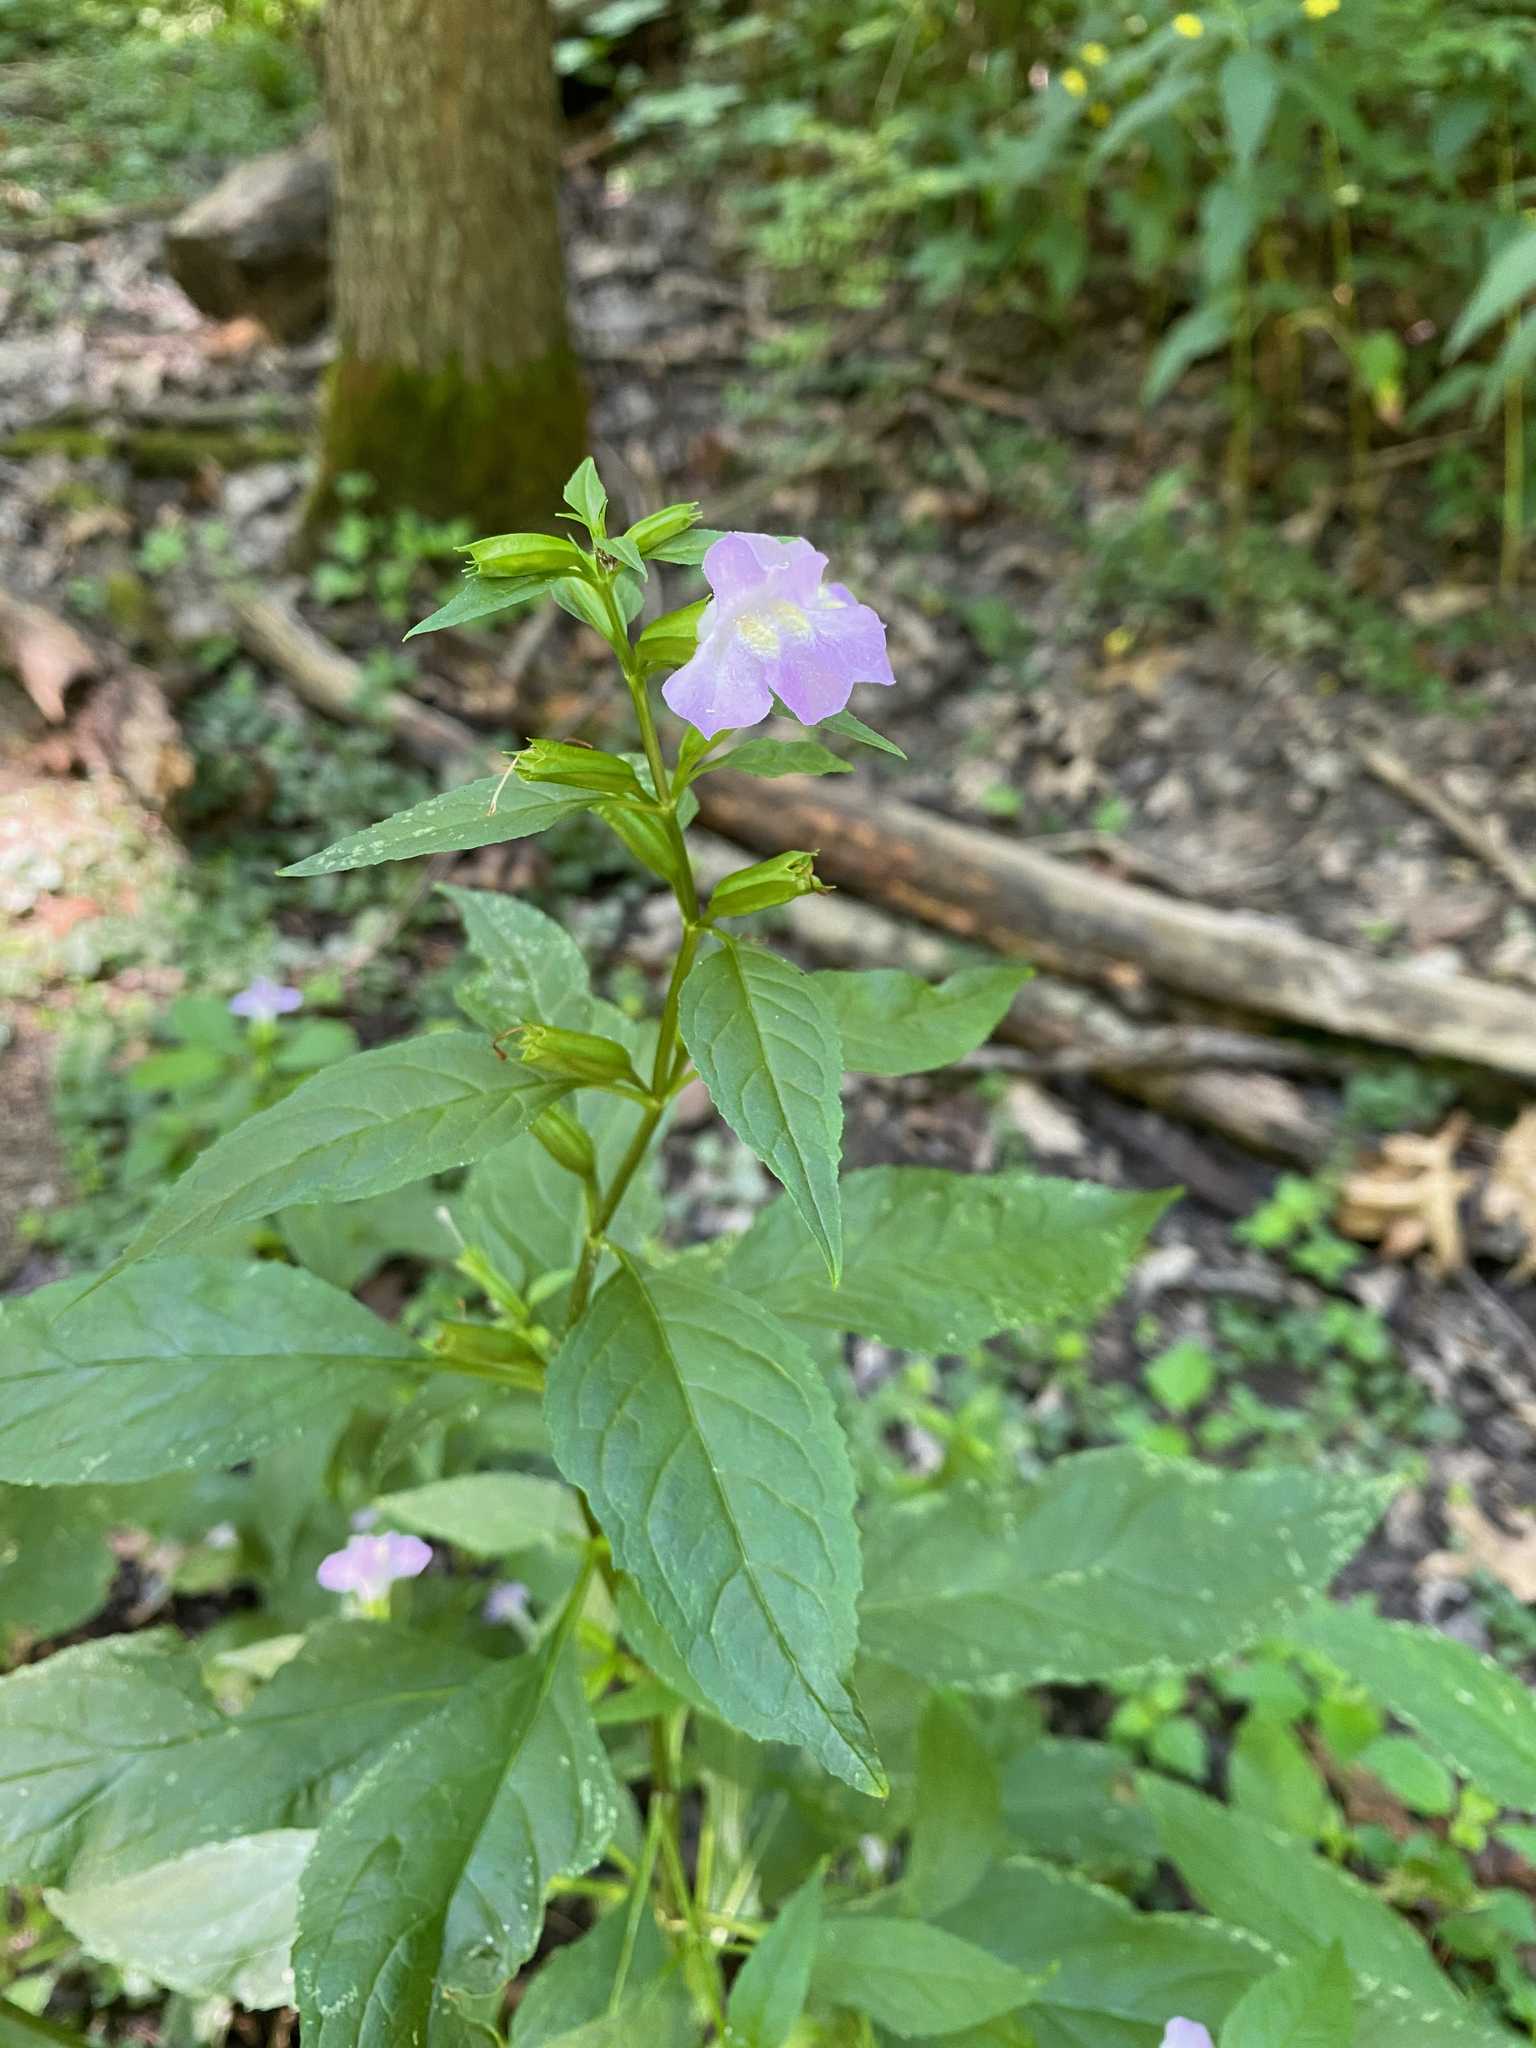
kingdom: Plantae
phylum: Tracheophyta
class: Magnoliopsida
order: Lamiales
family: Phrymaceae
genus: Mimulus
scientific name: Mimulus alatus
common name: Sharp-wing monkey-flower
